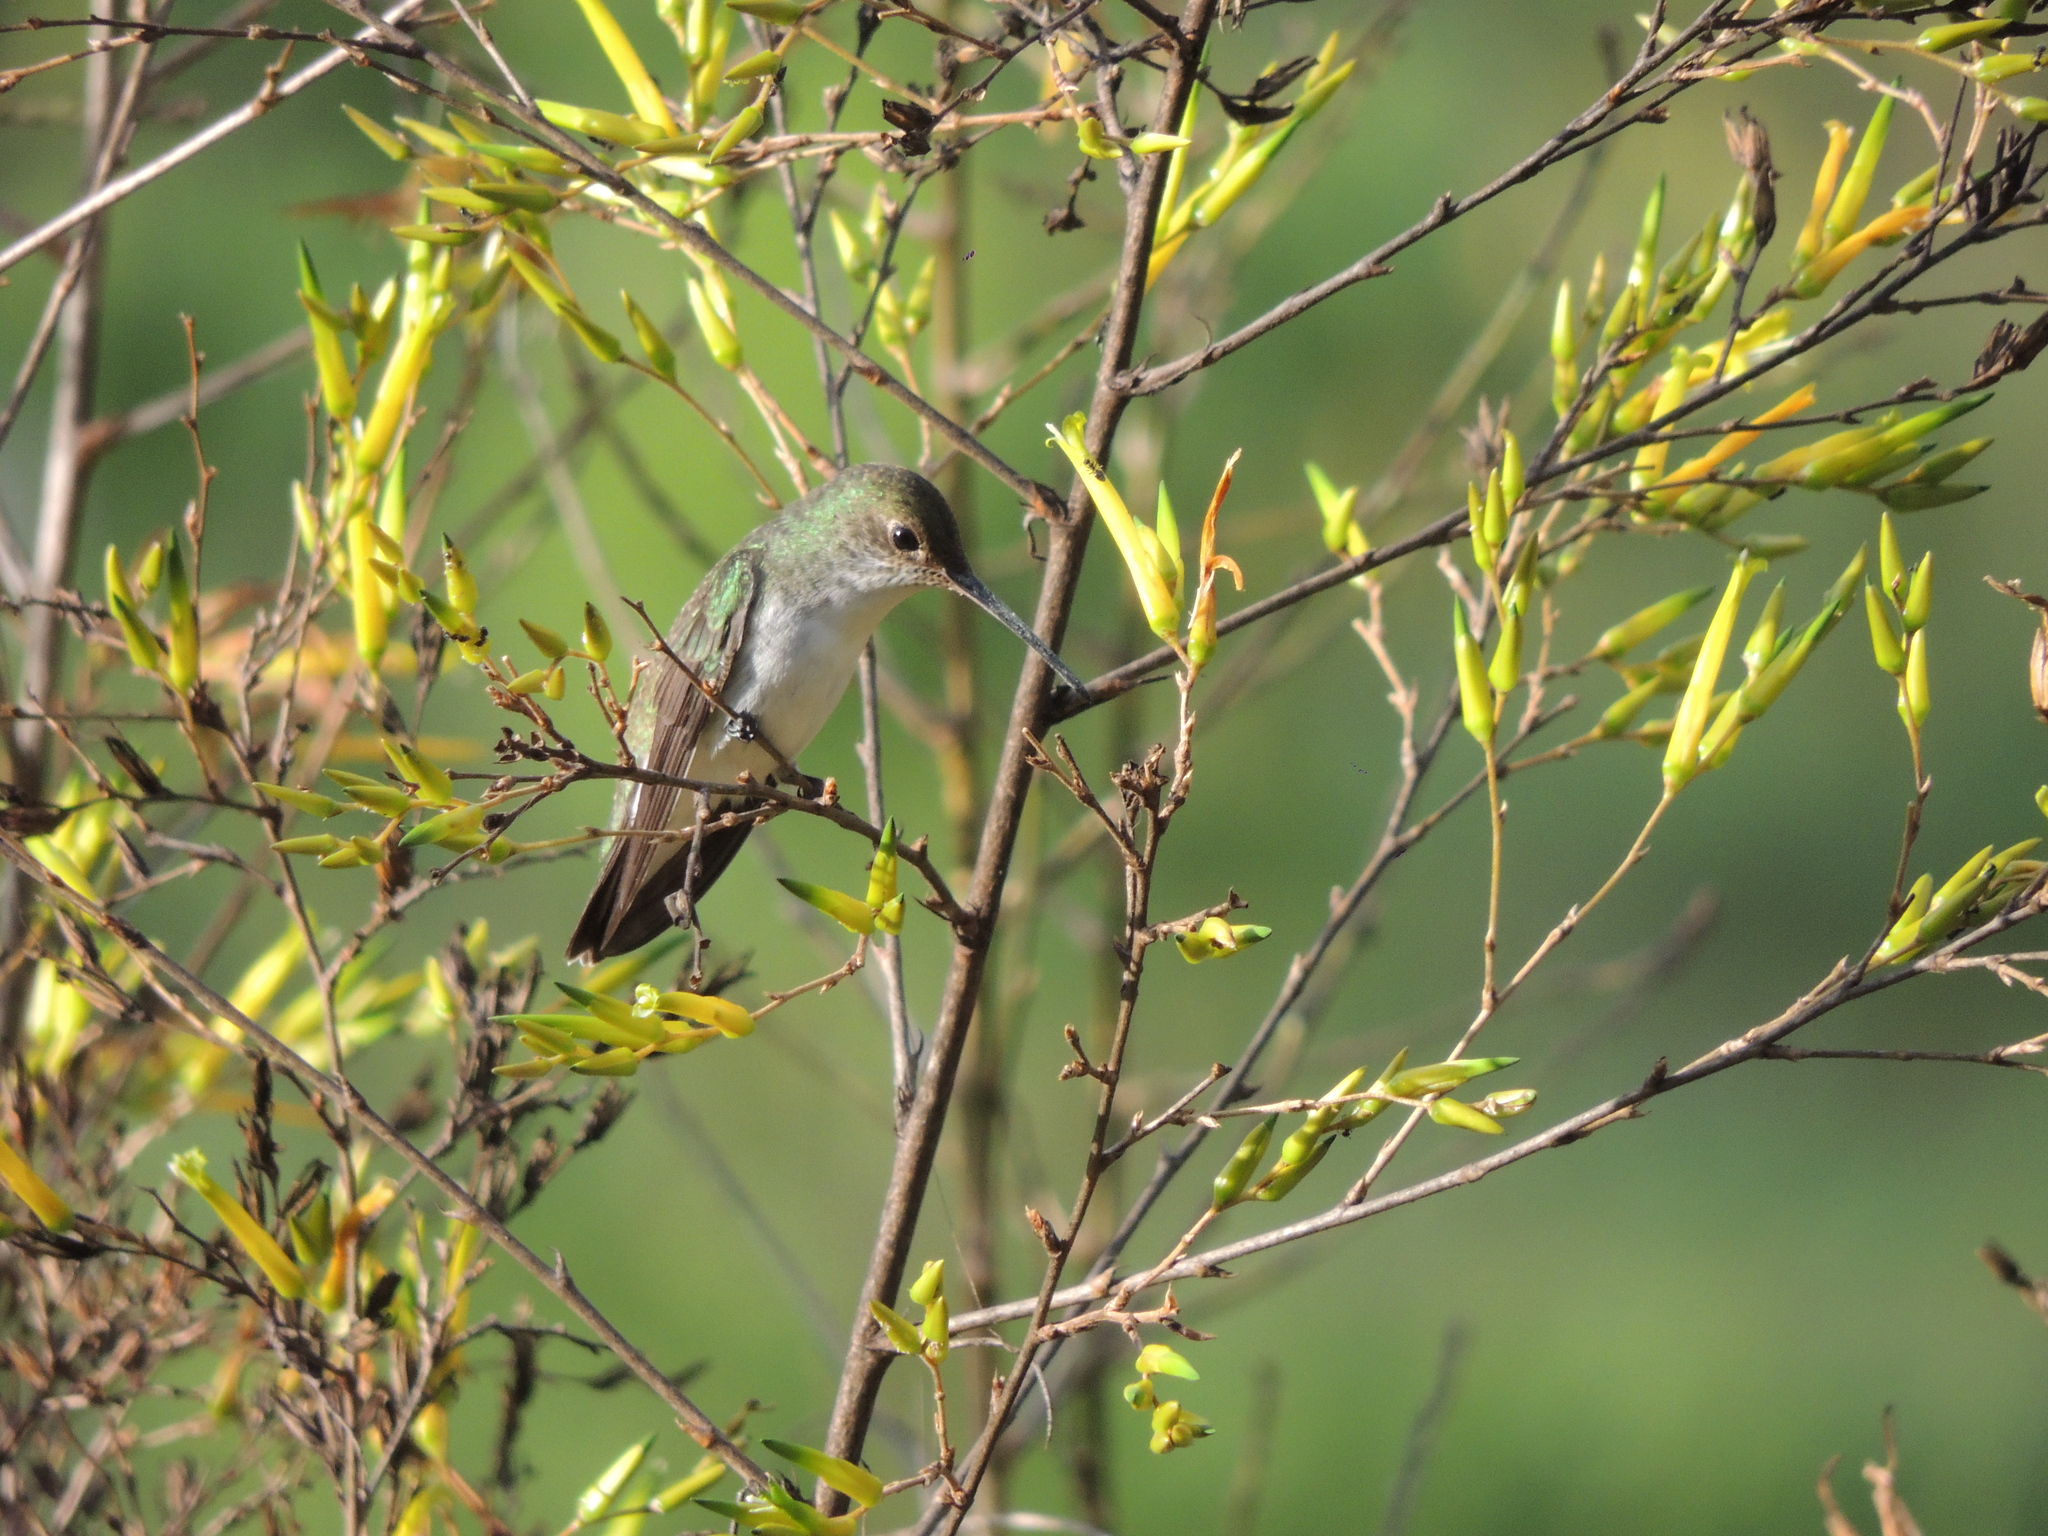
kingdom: Animalia
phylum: Chordata
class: Aves
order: Apodiformes
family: Trochilidae
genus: Elliotomyia
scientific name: Elliotomyia chionogaster
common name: White-bellied hummingbird
